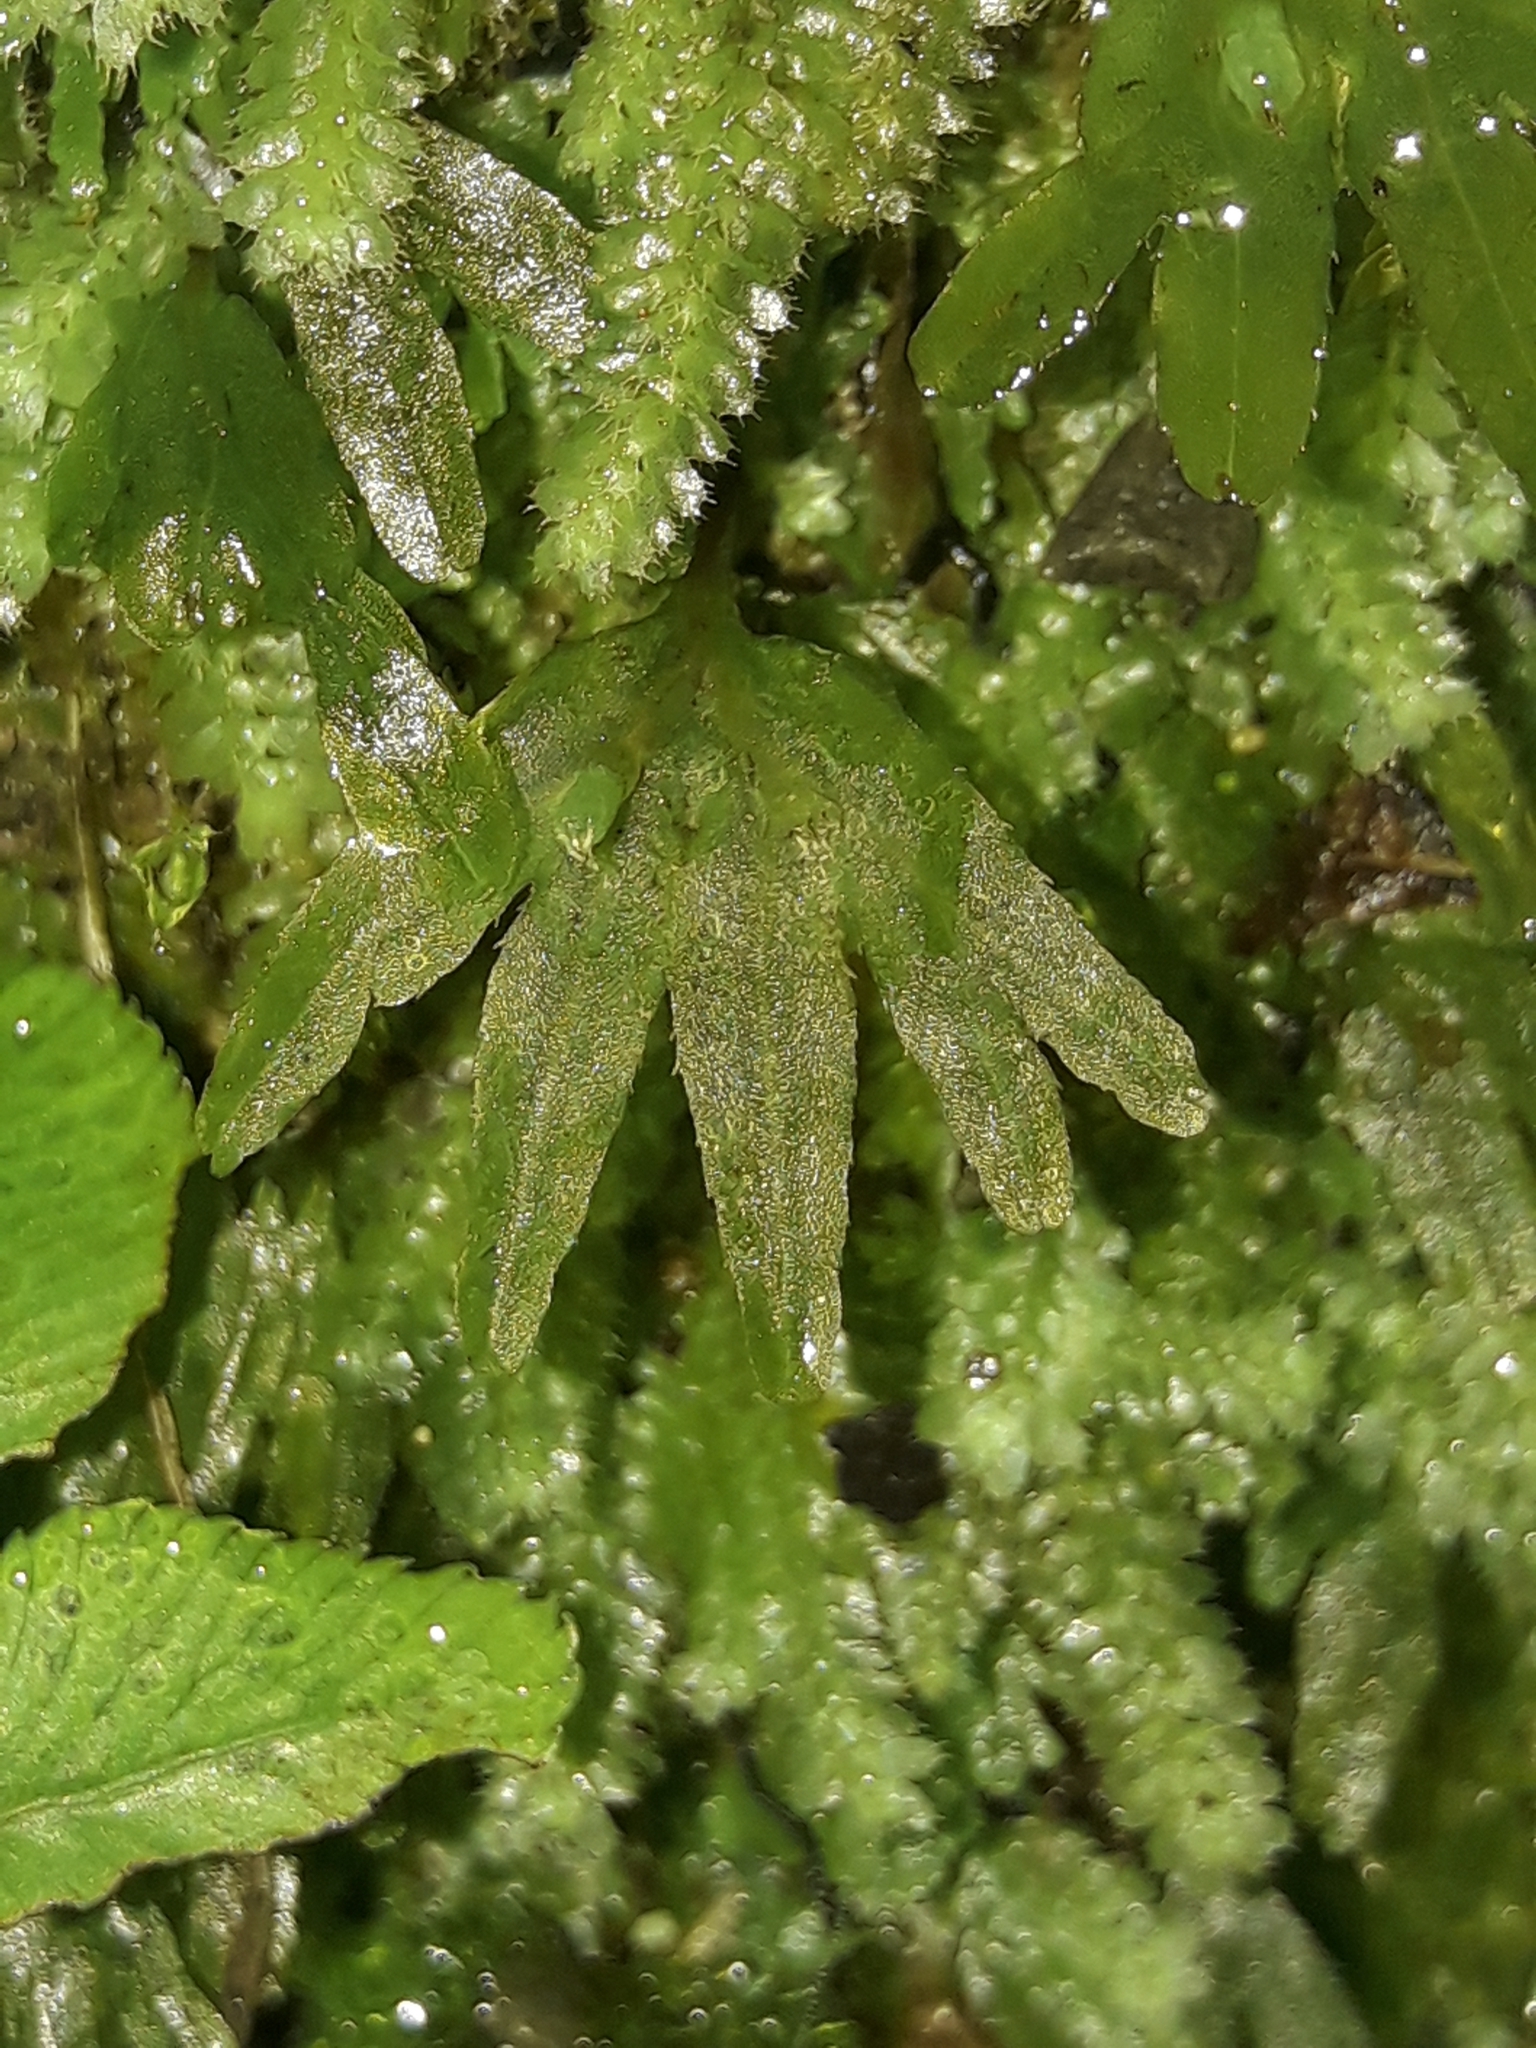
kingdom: Plantae
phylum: Marchantiophyta
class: Jungermanniopsida
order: Pallaviciniales
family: Pallaviciniaceae
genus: Symphyogyna
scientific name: Symphyogyna hymenophyllum
